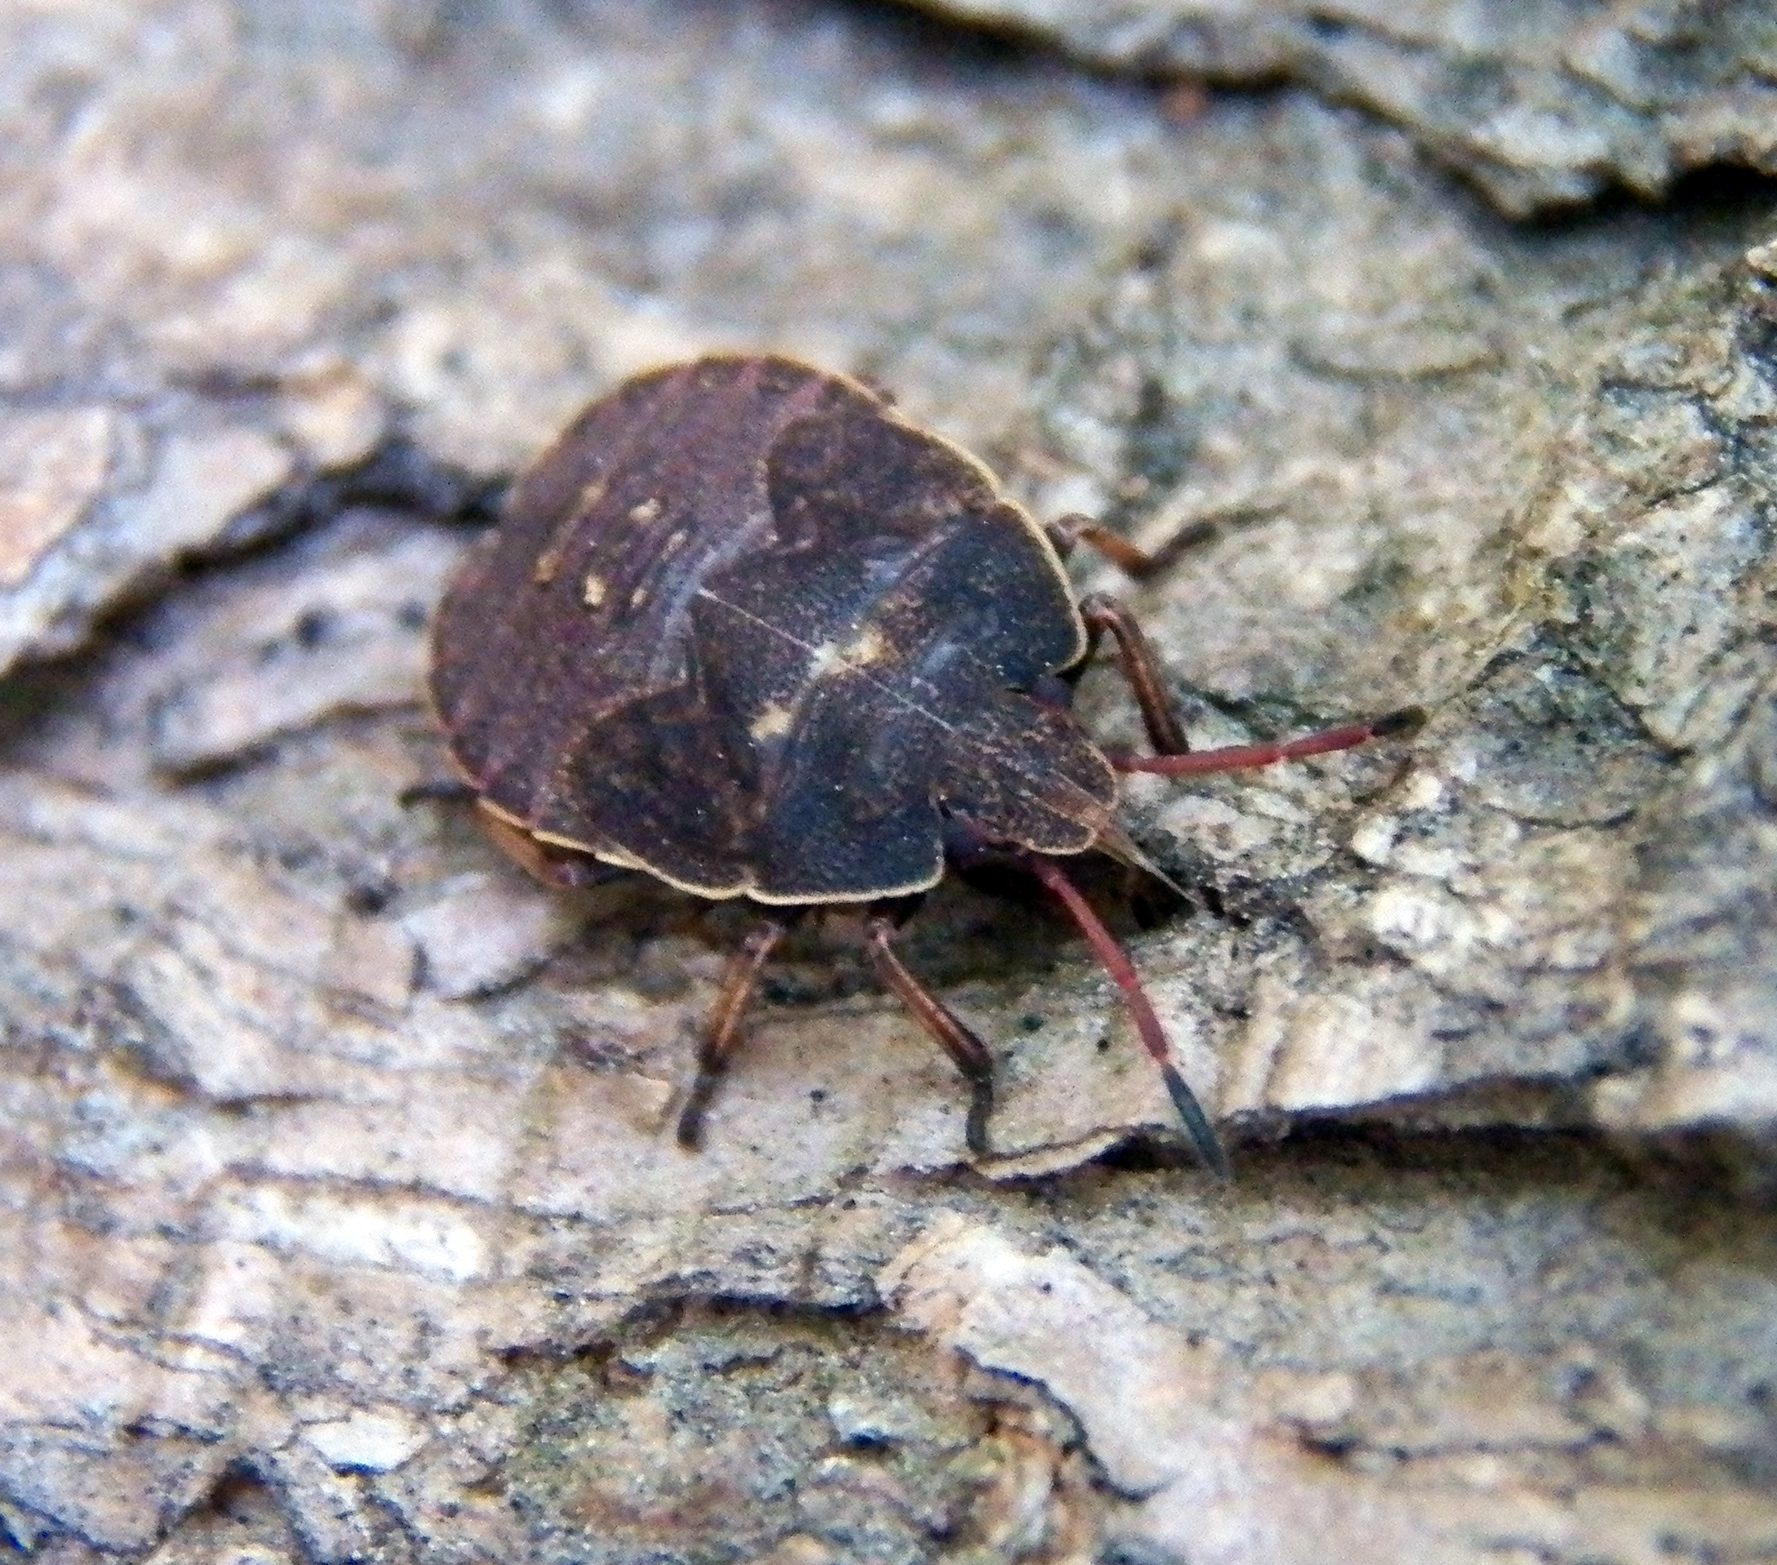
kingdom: Animalia
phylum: Arthropoda
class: Insecta
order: Hemiptera
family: Pentatomidae
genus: Menecles
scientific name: Menecles insertus
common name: Elf shoe stink bug
